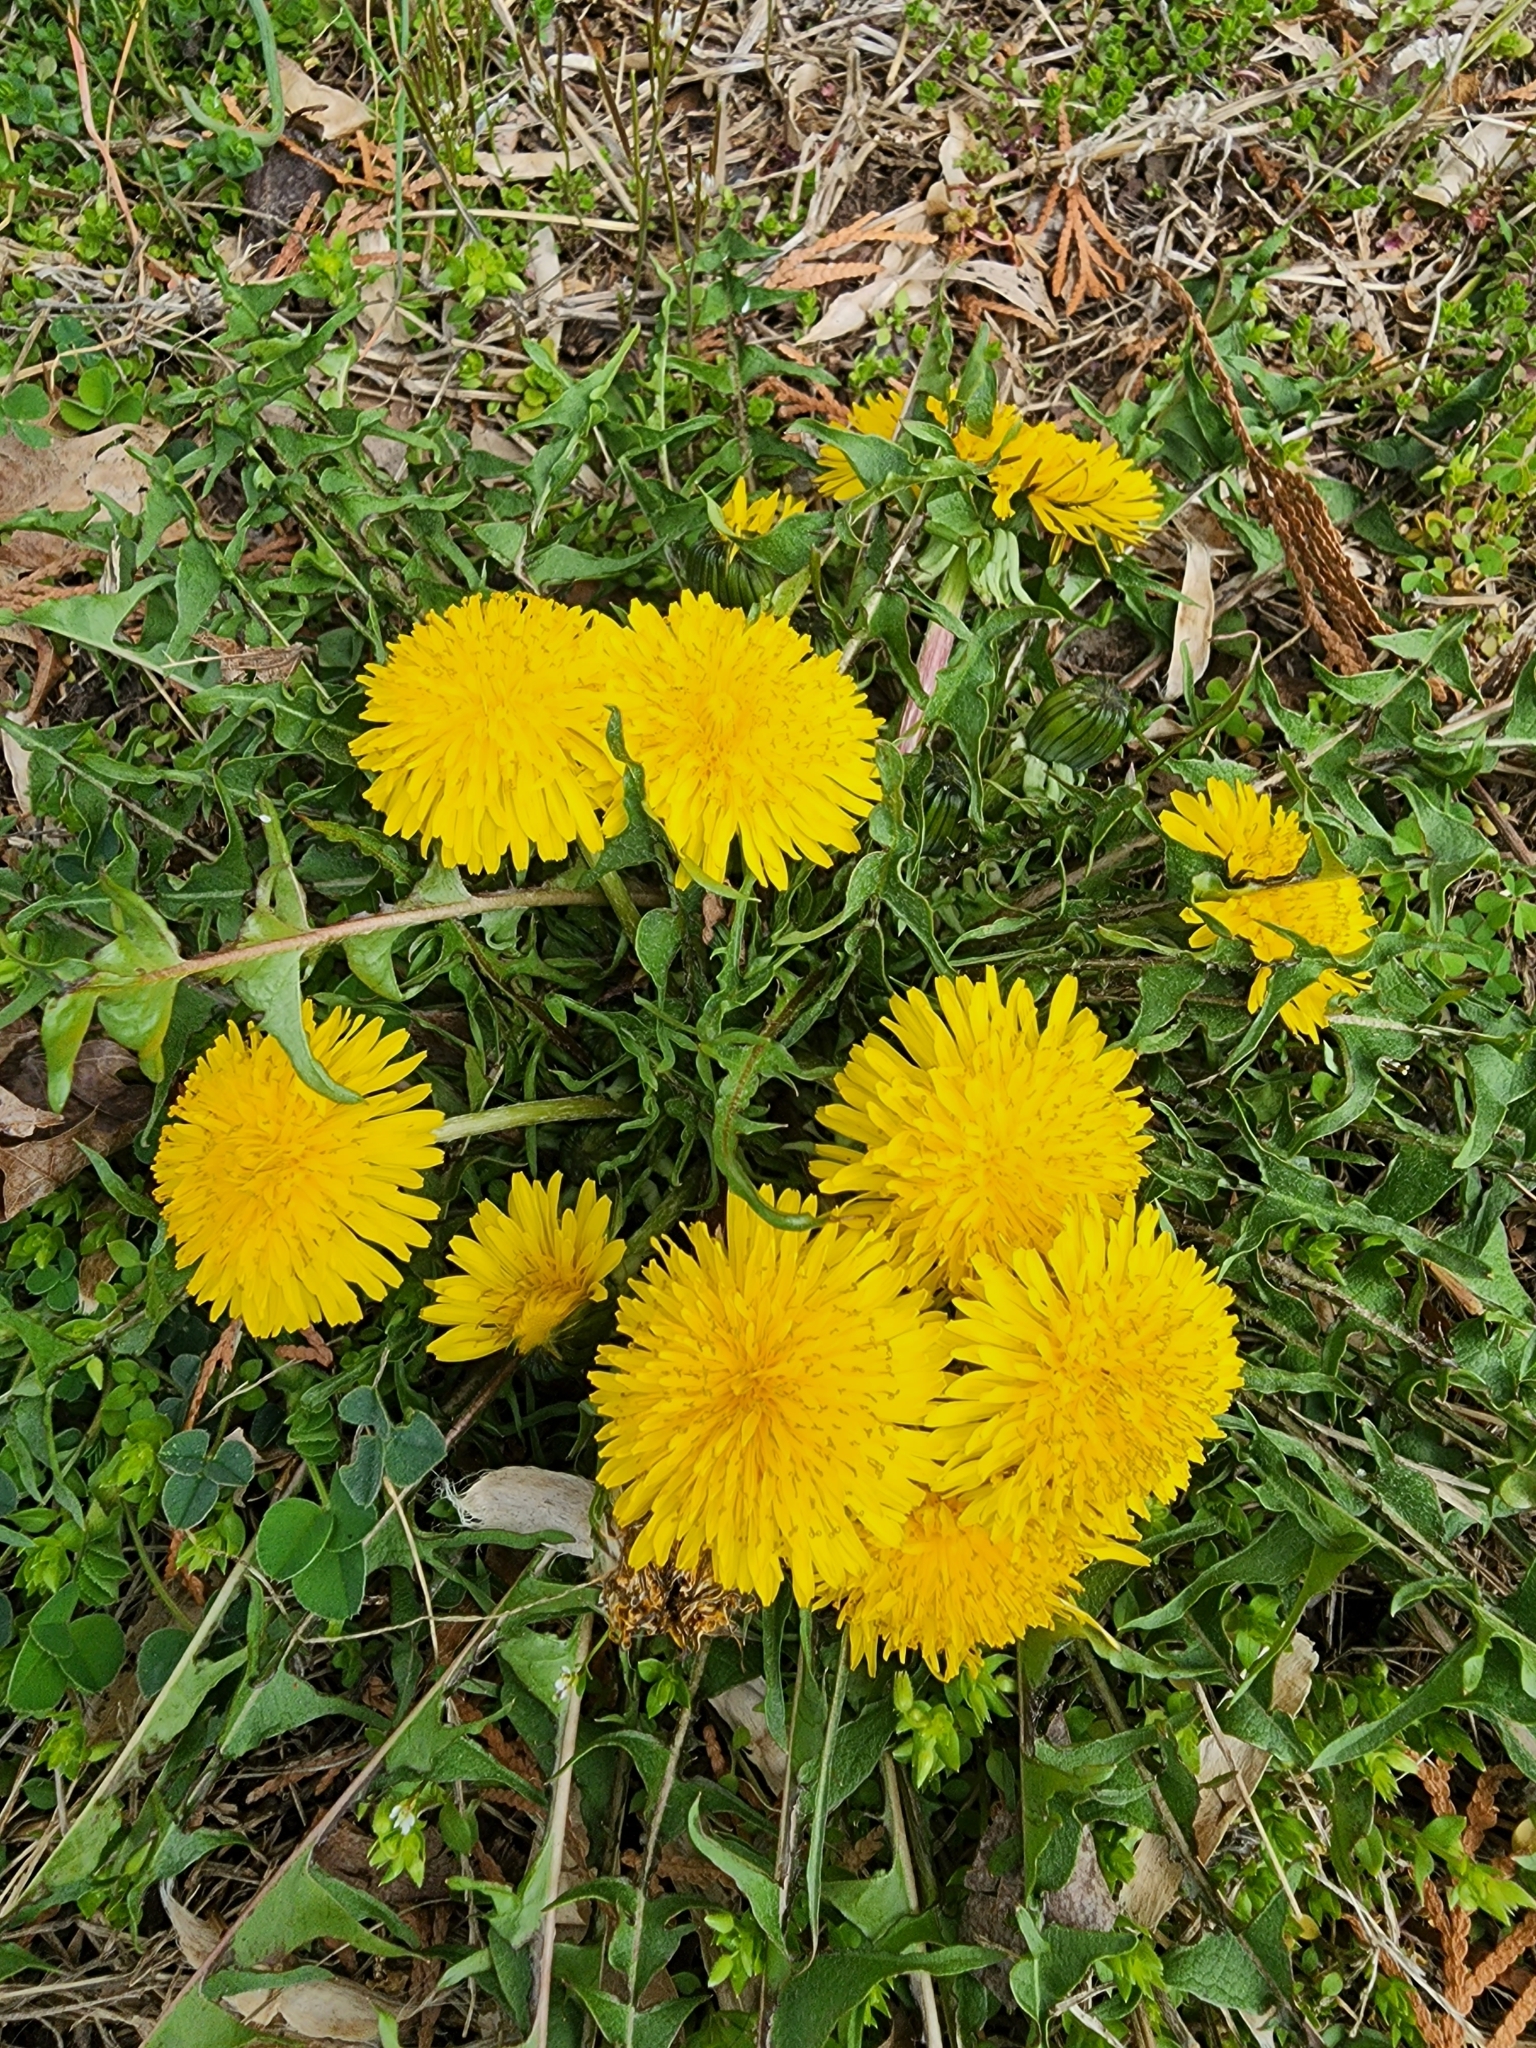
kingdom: Plantae
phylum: Tracheophyta
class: Magnoliopsida
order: Asterales
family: Asteraceae
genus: Taraxacum
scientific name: Taraxacum officinale
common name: Common dandelion
